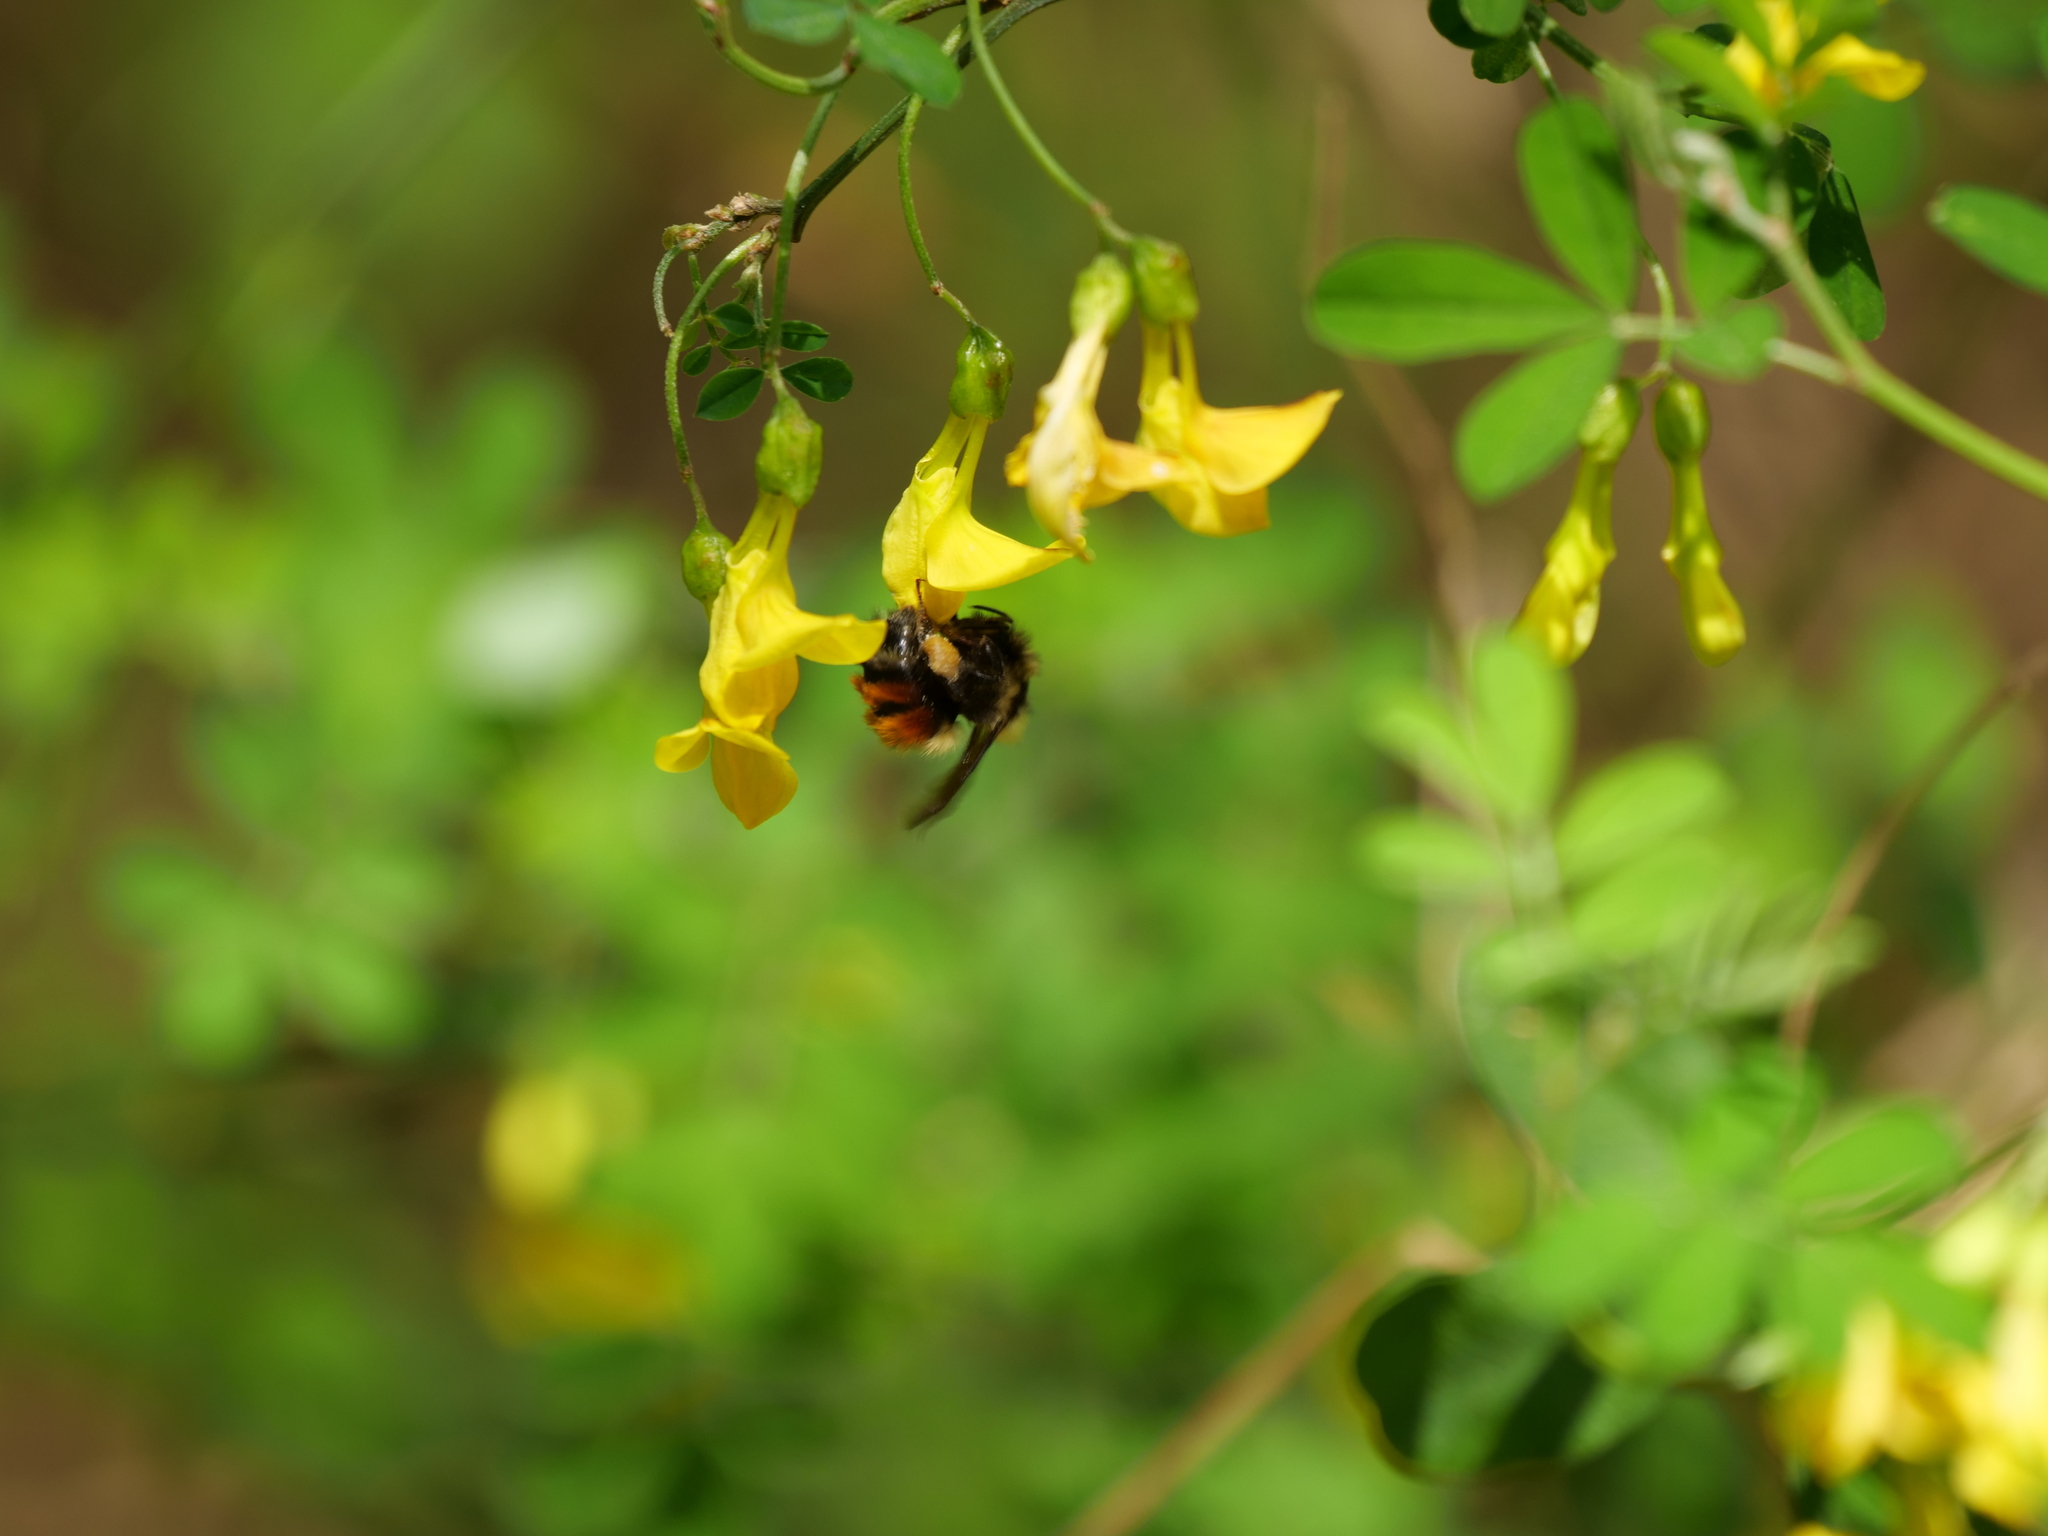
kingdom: Animalia
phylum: Arthropoda
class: Insecta
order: Hymenoptera
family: Apidae
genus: Bombus
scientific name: Bombus melanopygus
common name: Black tail bumble bee
